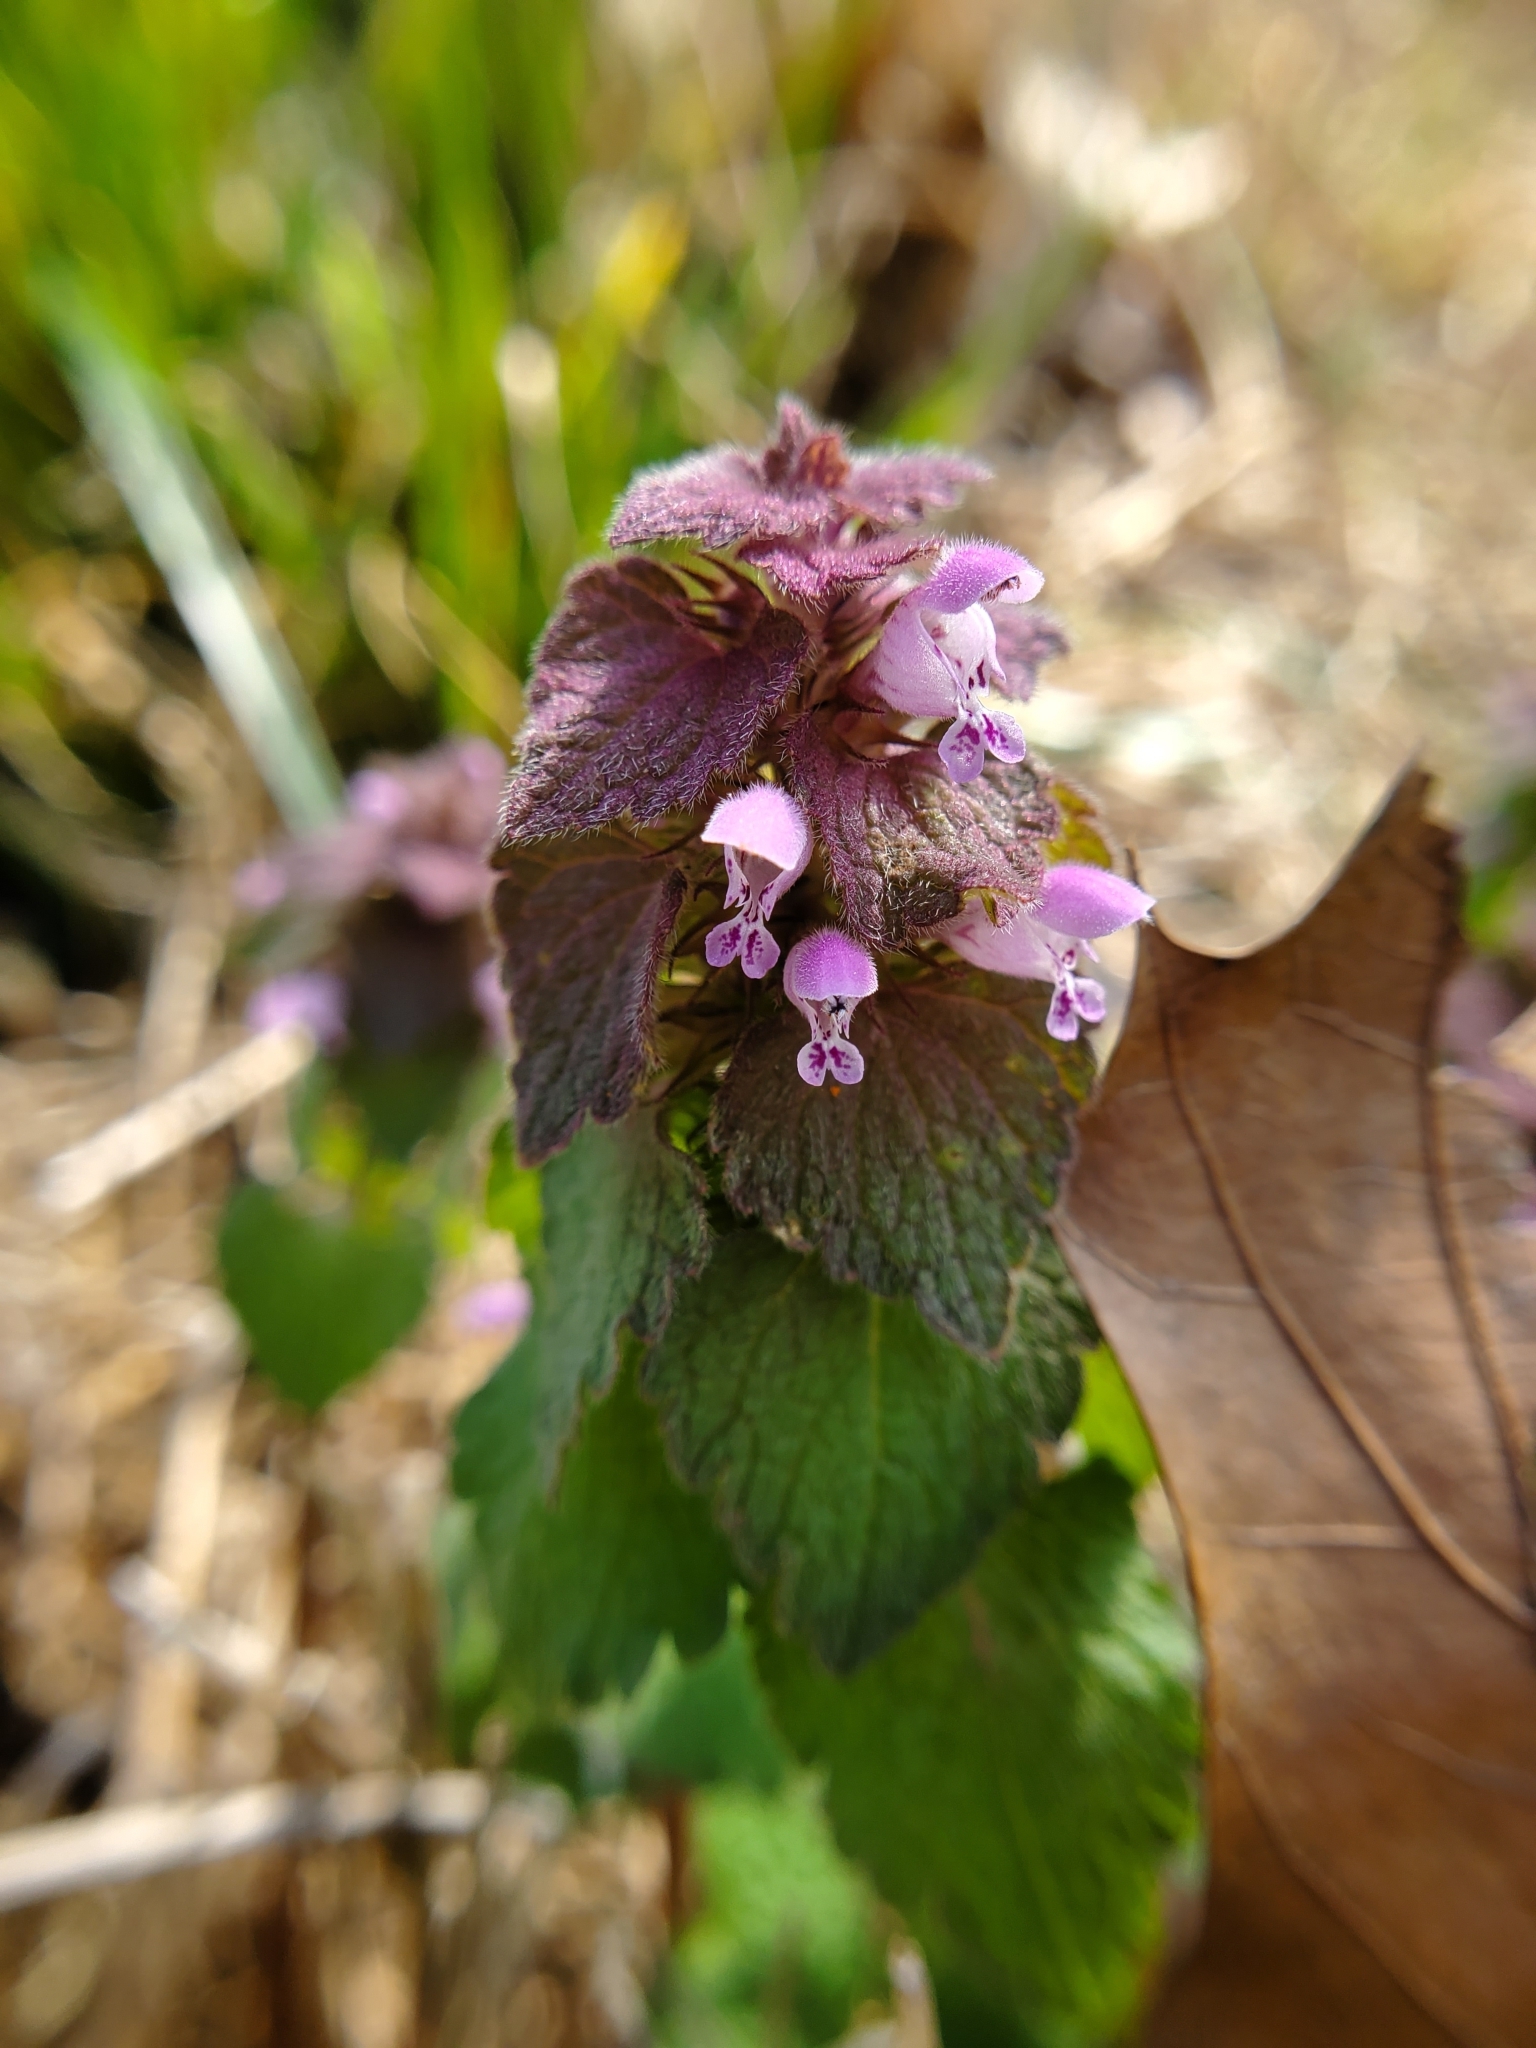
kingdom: Plantae
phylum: Tracheophyta
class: Magnoliopsida
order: Lamiales
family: Lamiaceae
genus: Lamium
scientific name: Lamium purpureum
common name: Red dead-nettle
